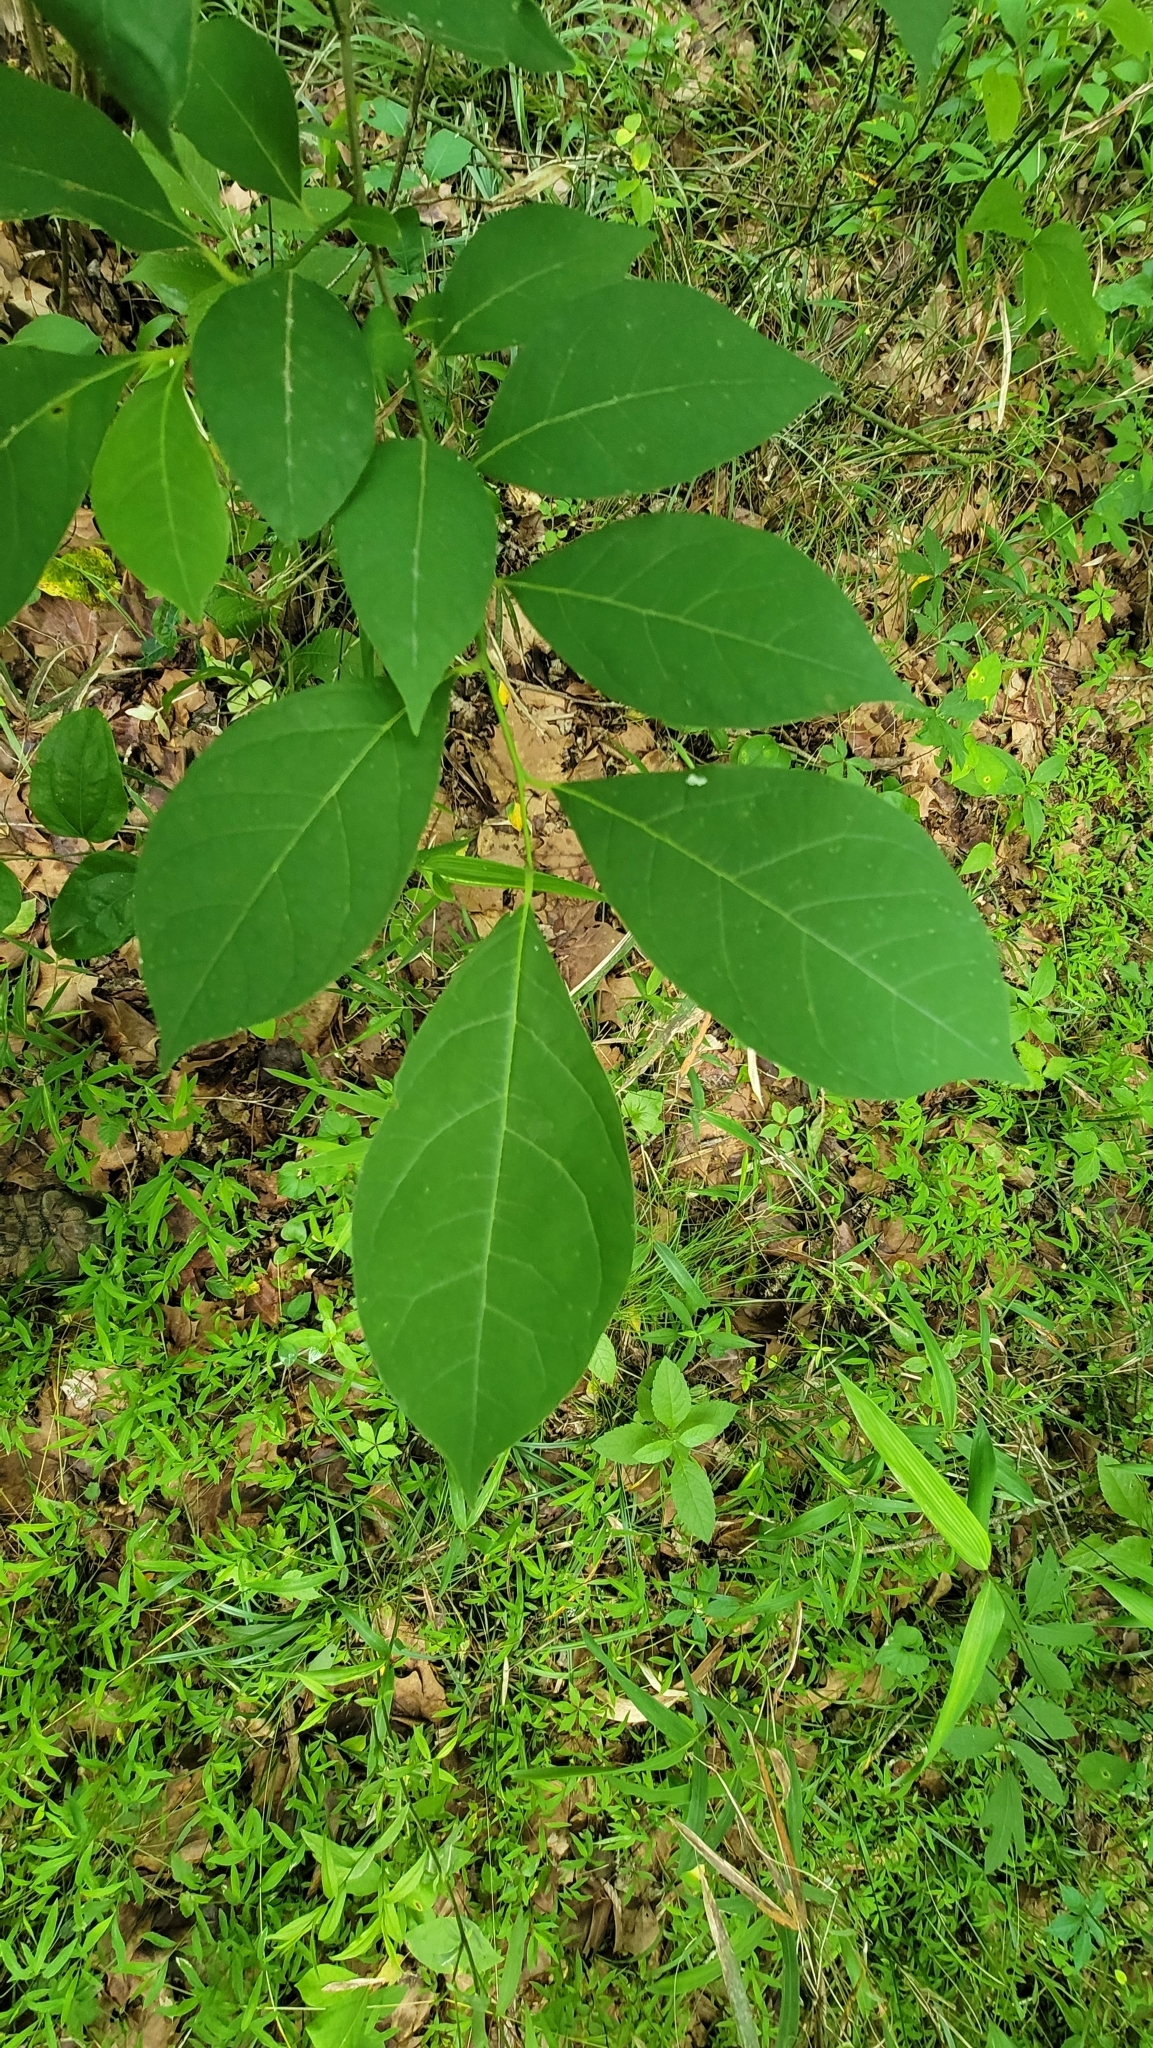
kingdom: Plantae
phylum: Tracheophyta
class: Magnoliopsida
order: Laurales
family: Lauraceae
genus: Lindera
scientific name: Lindera benzoin
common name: Spicebush
